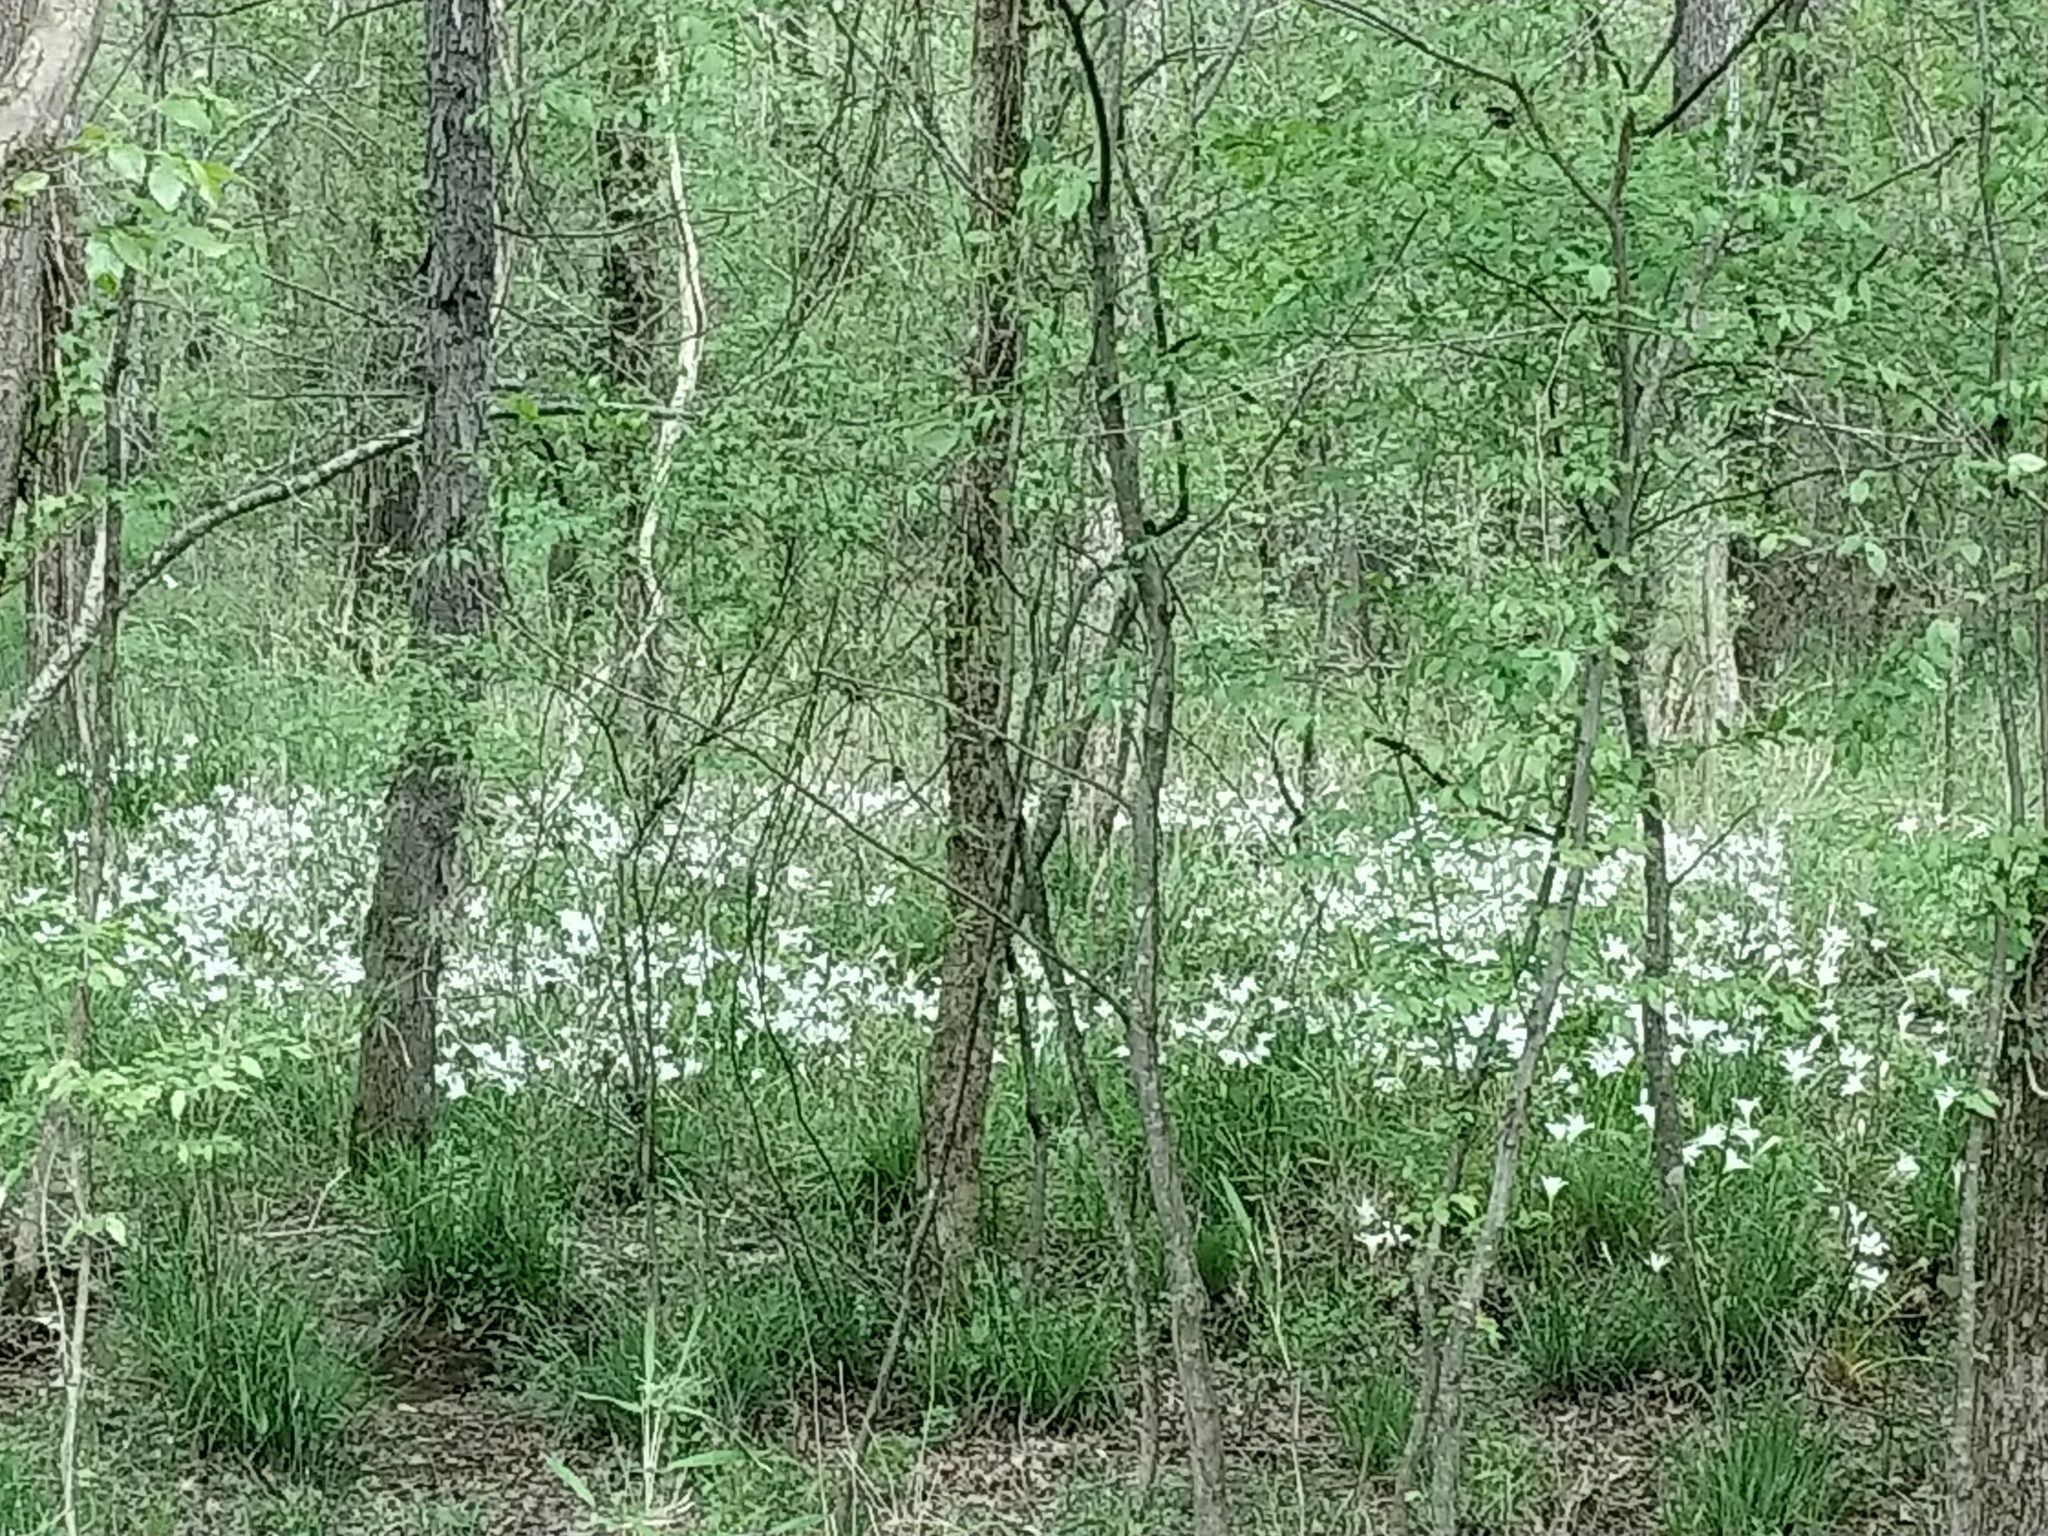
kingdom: Plantae
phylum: Tracheophyta
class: Liliopsida
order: Asparagales
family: Amaryllidaceae
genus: Zephyranthes
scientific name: Zephyranthes atamasco
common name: Atamasco lily
